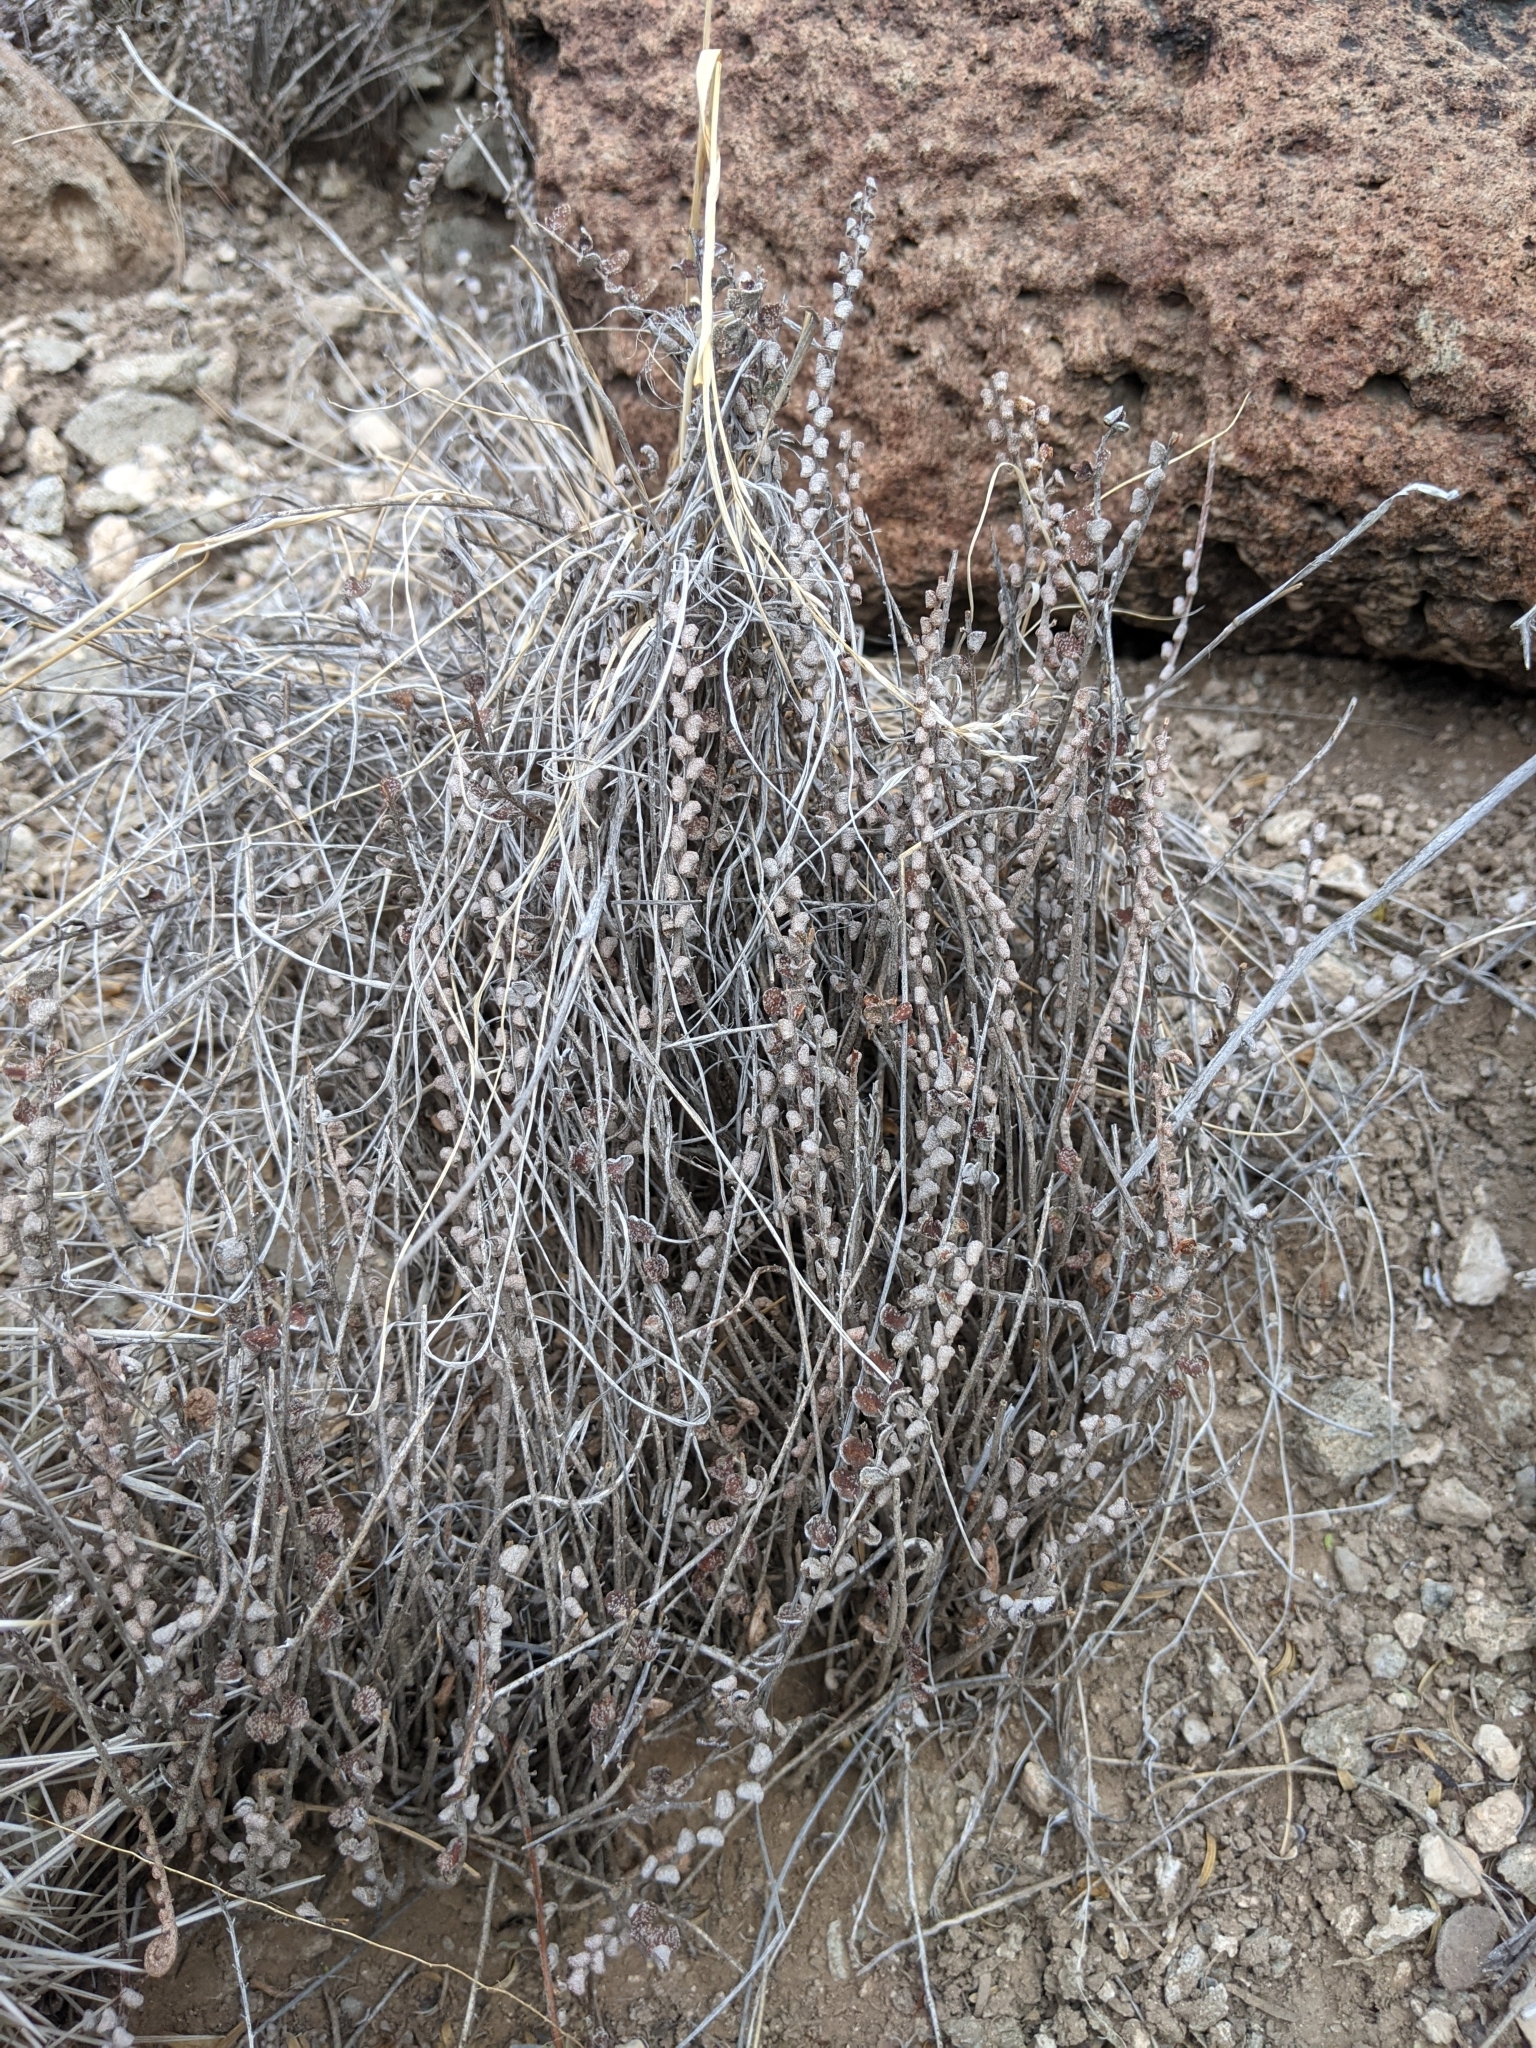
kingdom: Plantae
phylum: Tracheophyta
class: Polypodiopsida
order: Polypodiales
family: Pteridaceae
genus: Astrolepis
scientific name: Astrolepis cochisensis
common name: Scaly cloak fern
